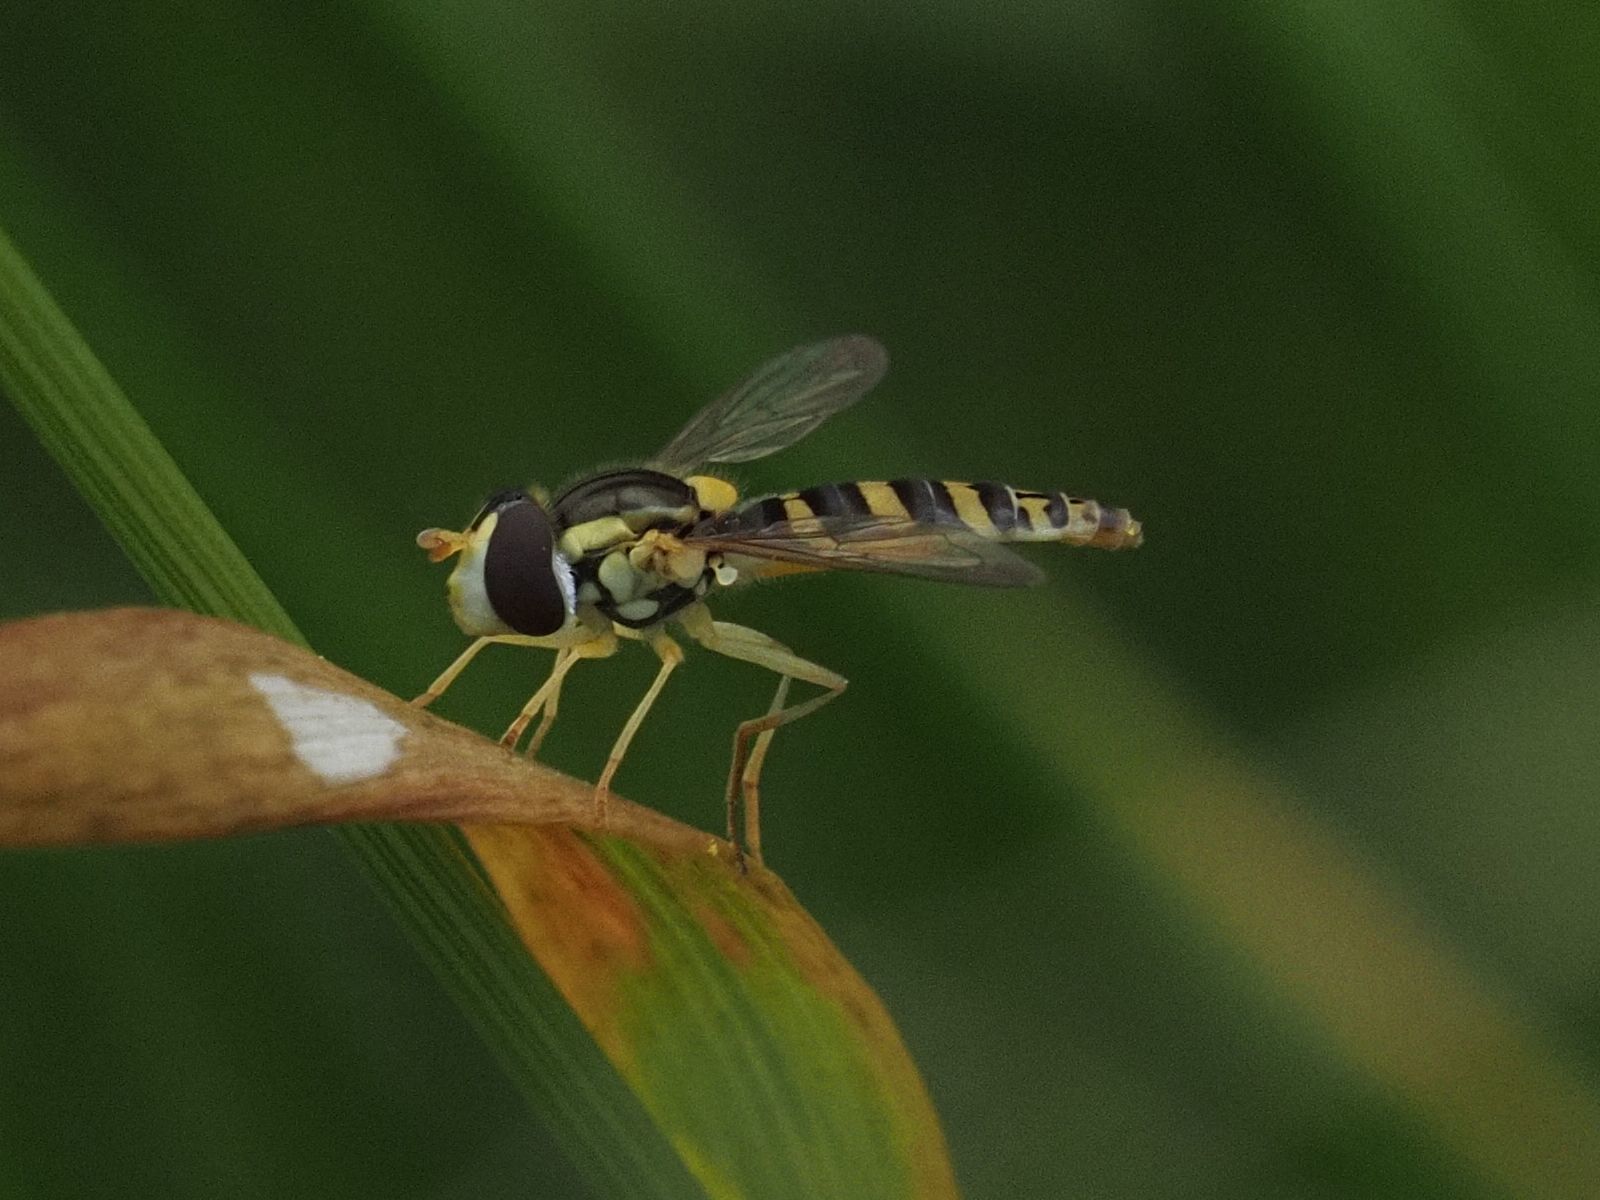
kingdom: Animalia
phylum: Arthropoda
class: Insecta
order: Diptera
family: Syrphidae
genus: Sphaerophoria
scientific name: Sphaerophoria
